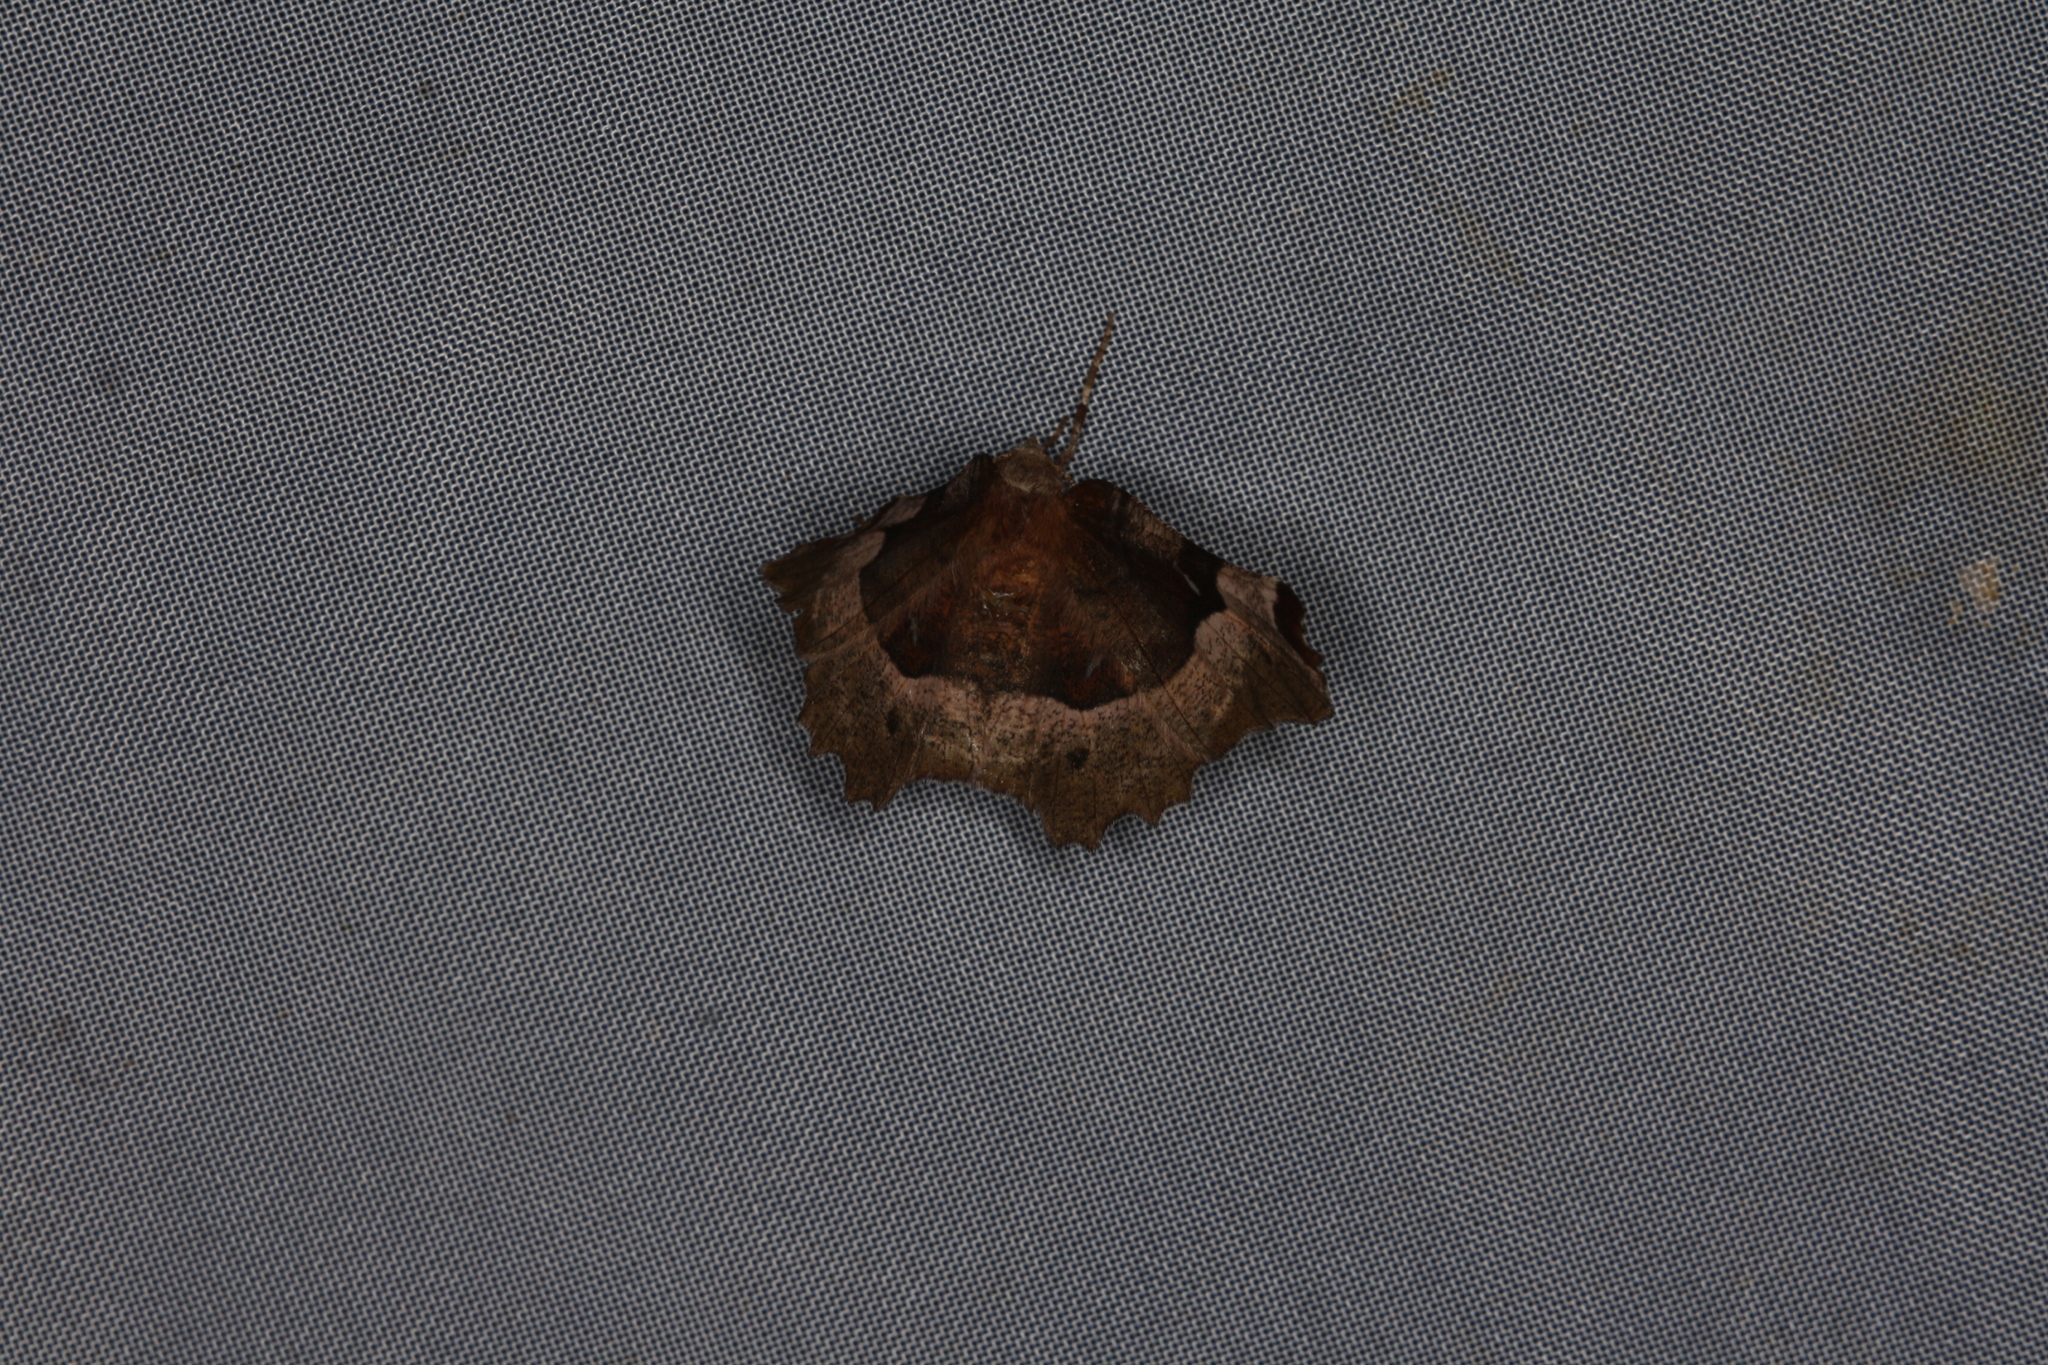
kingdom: Animalia
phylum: Arthropoda
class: Insecta
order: Lepidoptera
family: Geometridae
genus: Selenia
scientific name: Selenia tetralunaria
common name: Purple thorn
